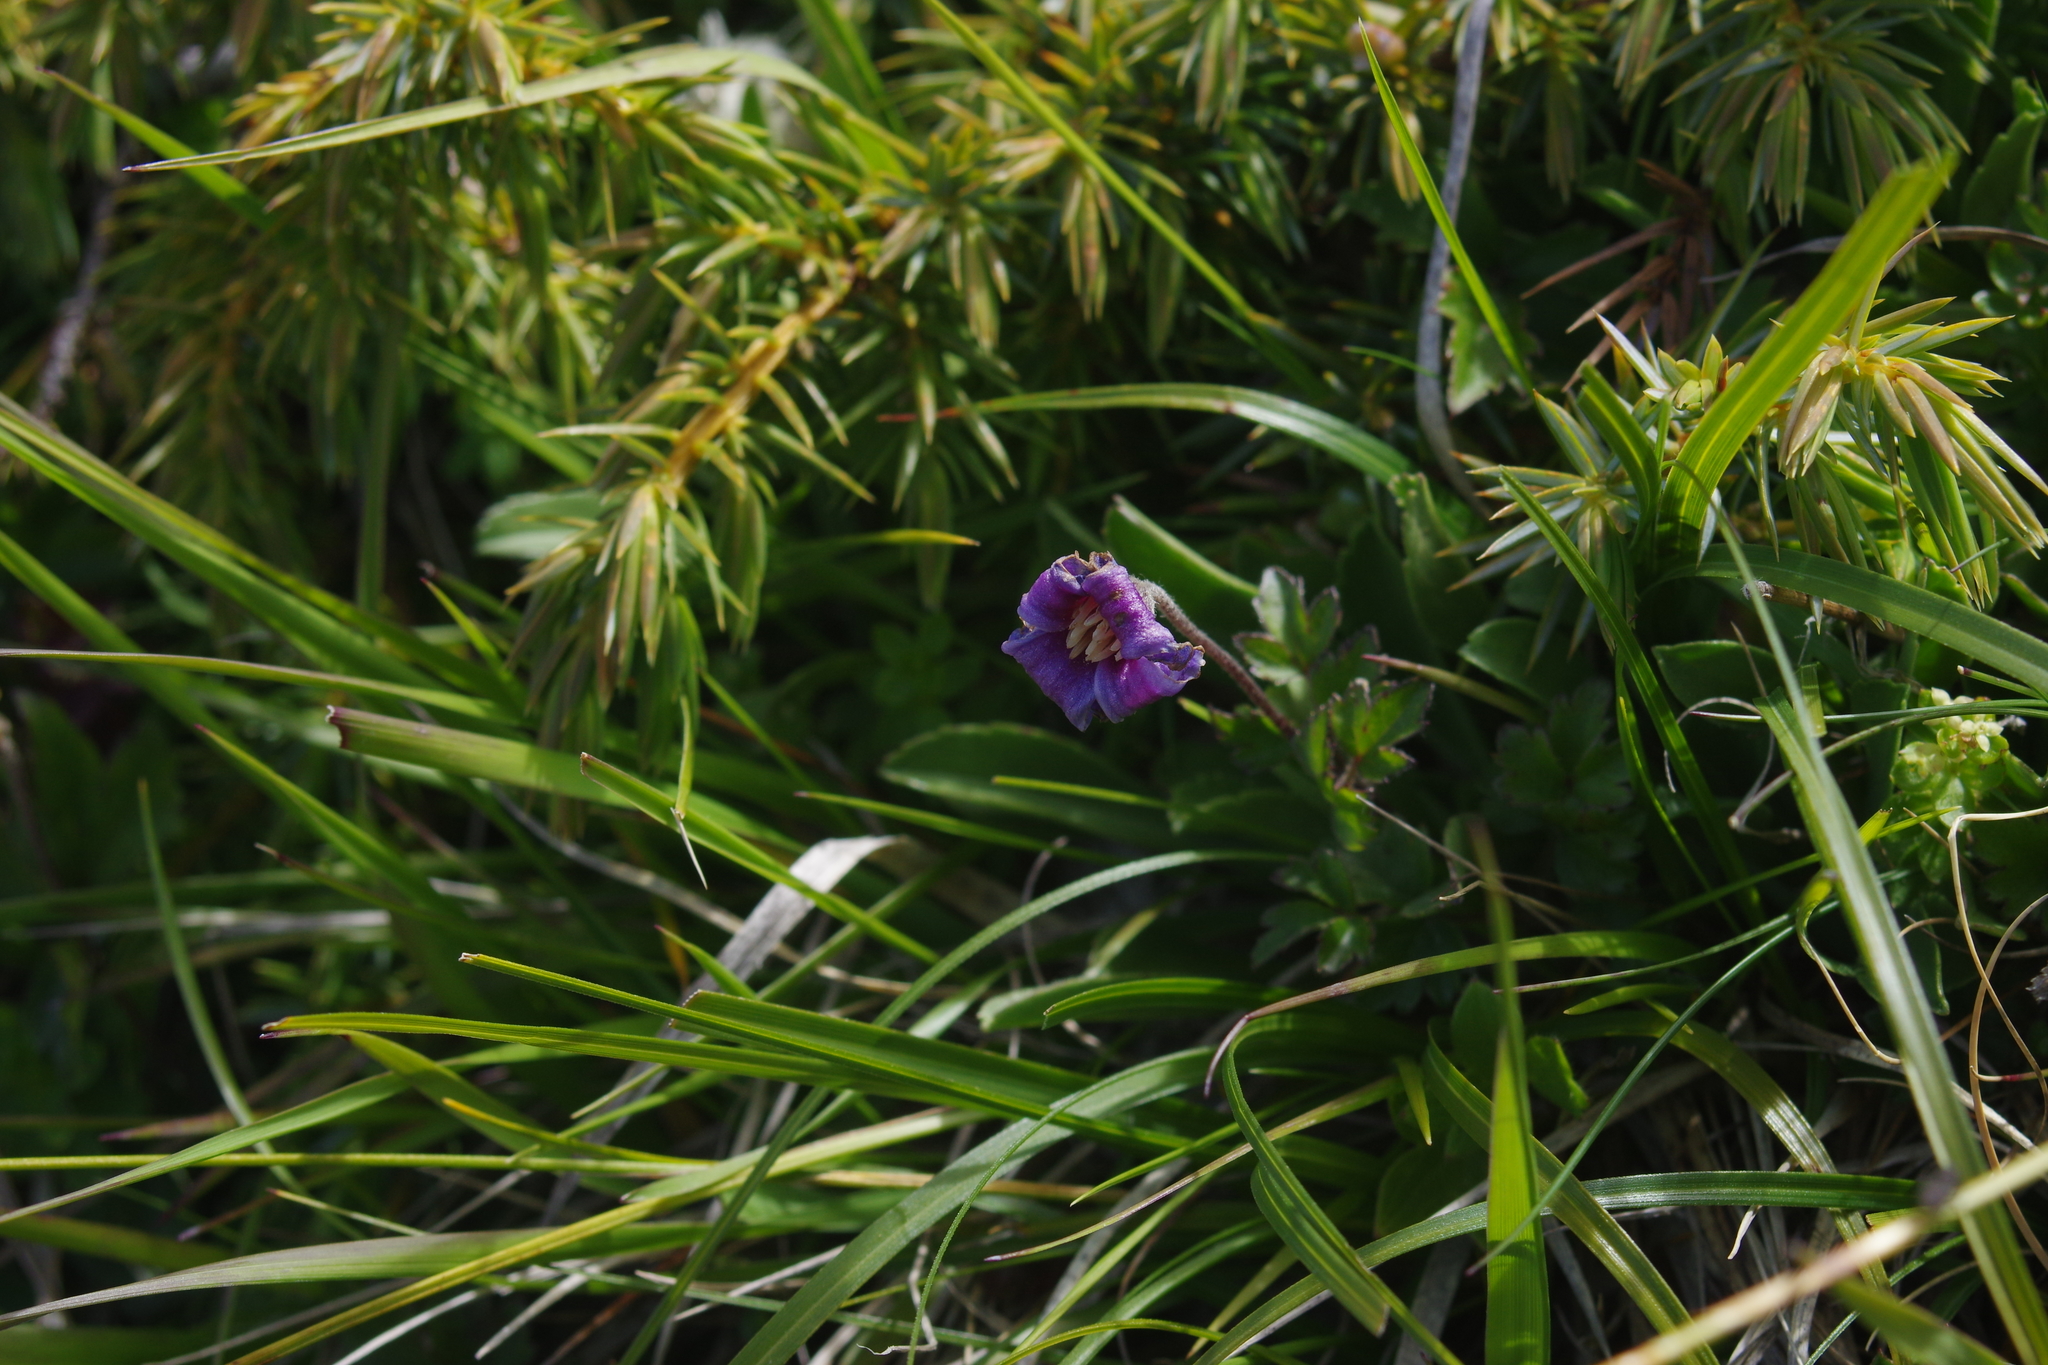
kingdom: Plantae
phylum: Tracheophyta
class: Magnoliopsida
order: Ranunculales
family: Ranunculaceae
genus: Clematis
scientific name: Clematis tsugetorum
